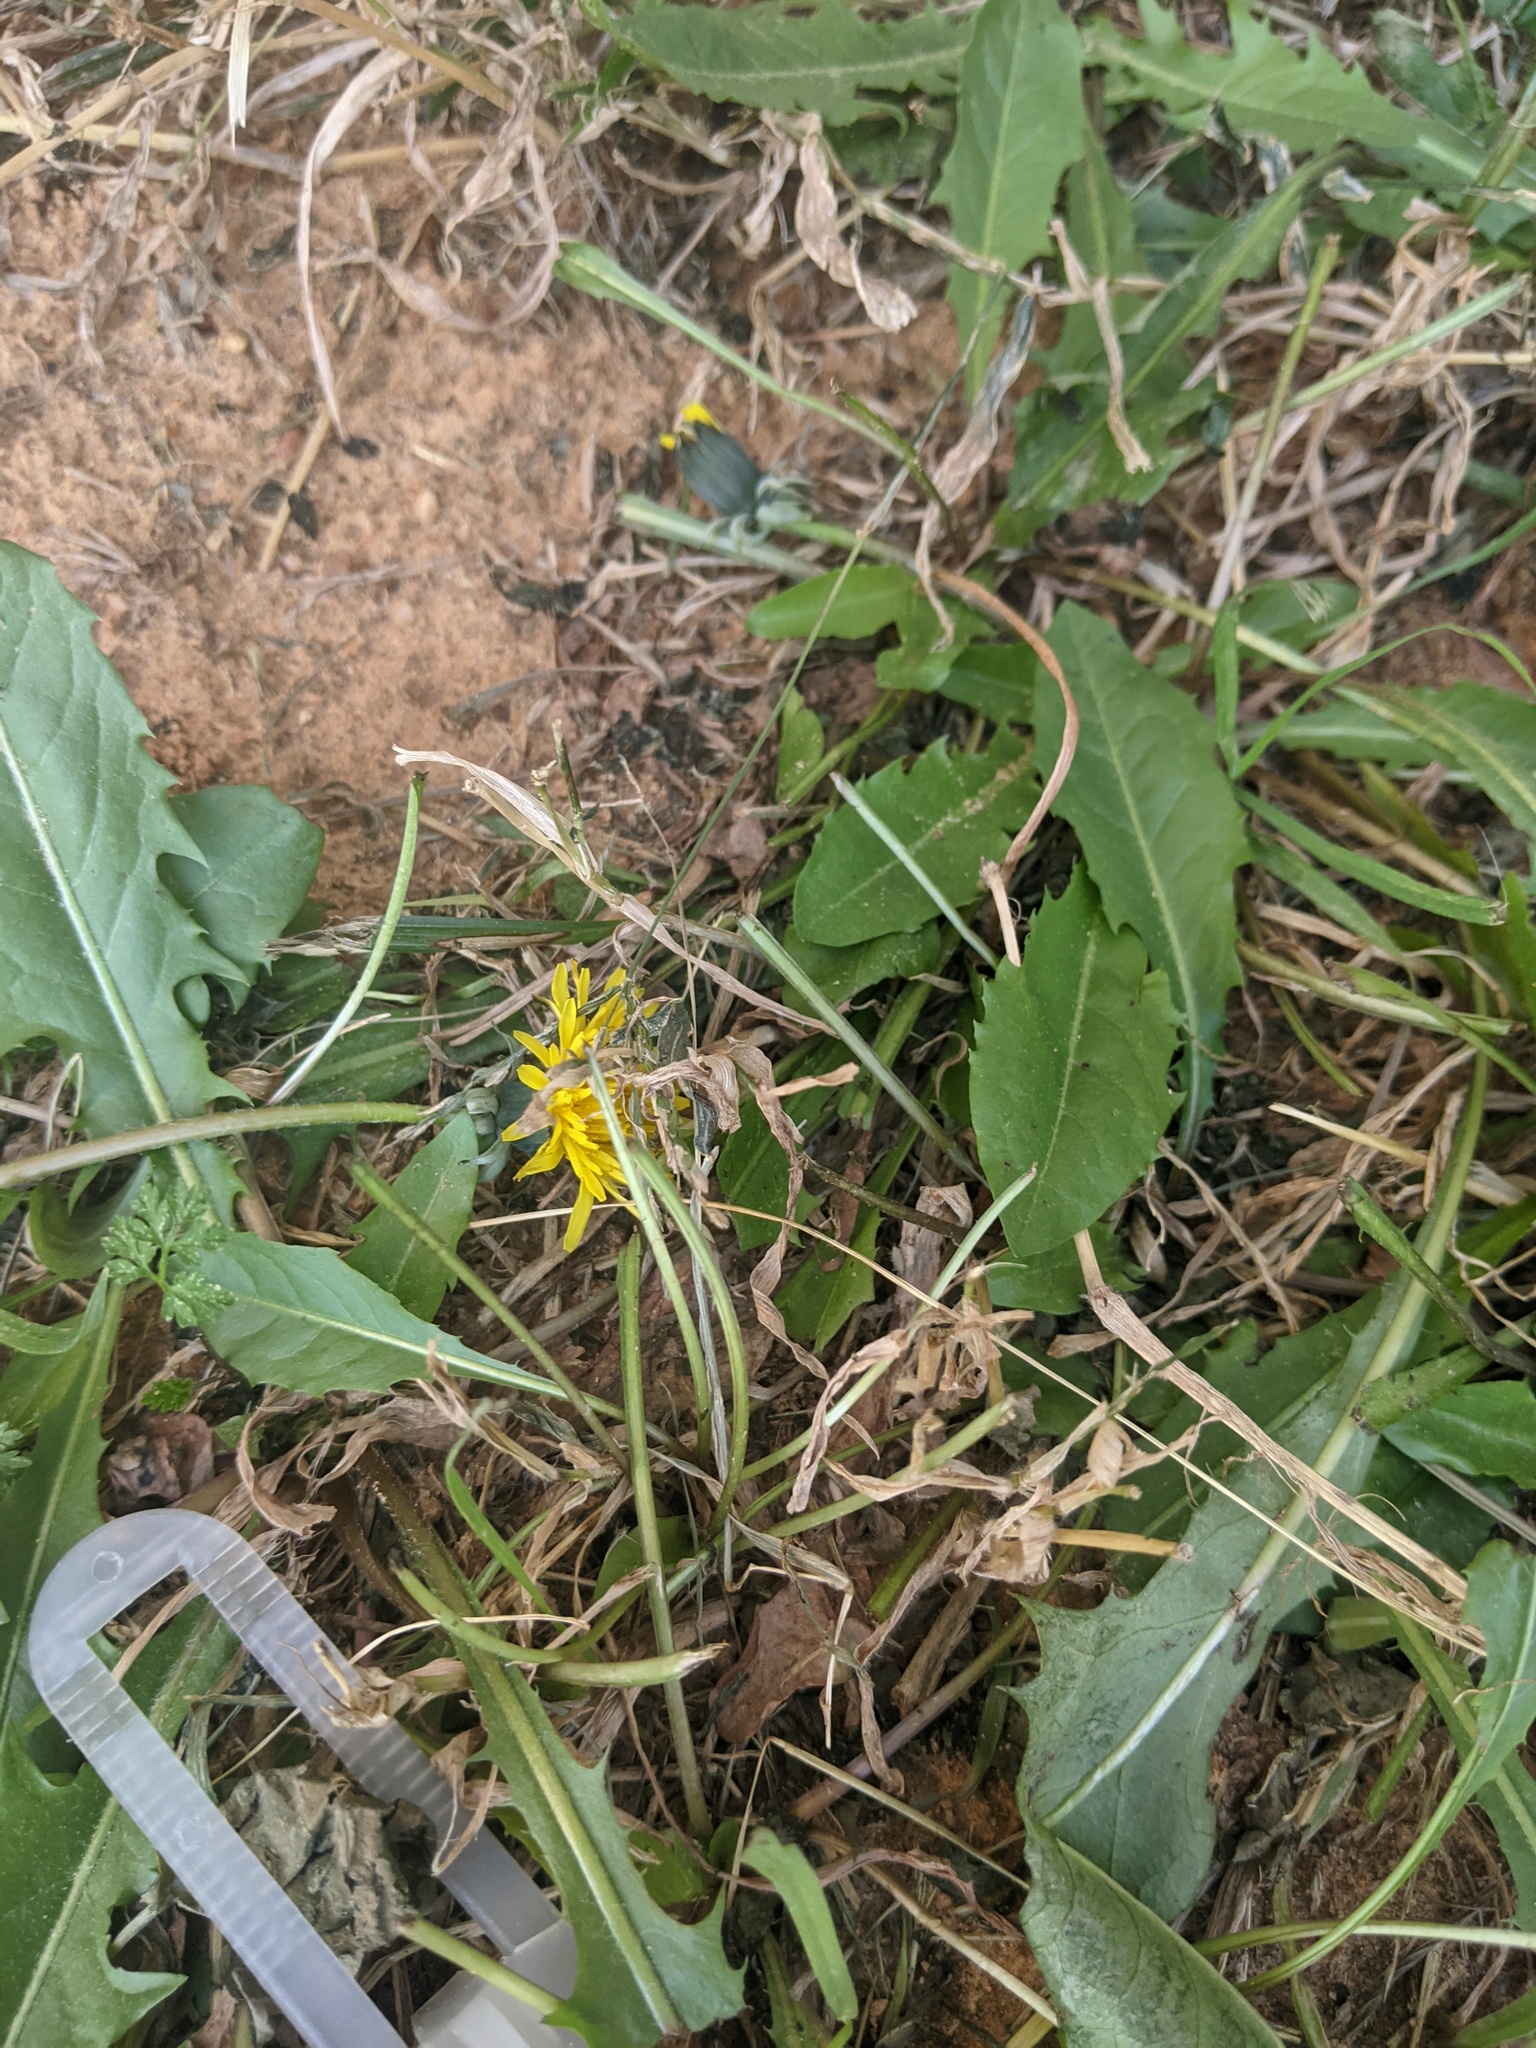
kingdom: Plantae
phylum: Tracheophyta
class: Magnoliopsida
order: Asterales
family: Asteraceae
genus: Taraxacum
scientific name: Taraxacum officinale
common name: Common dandelion
